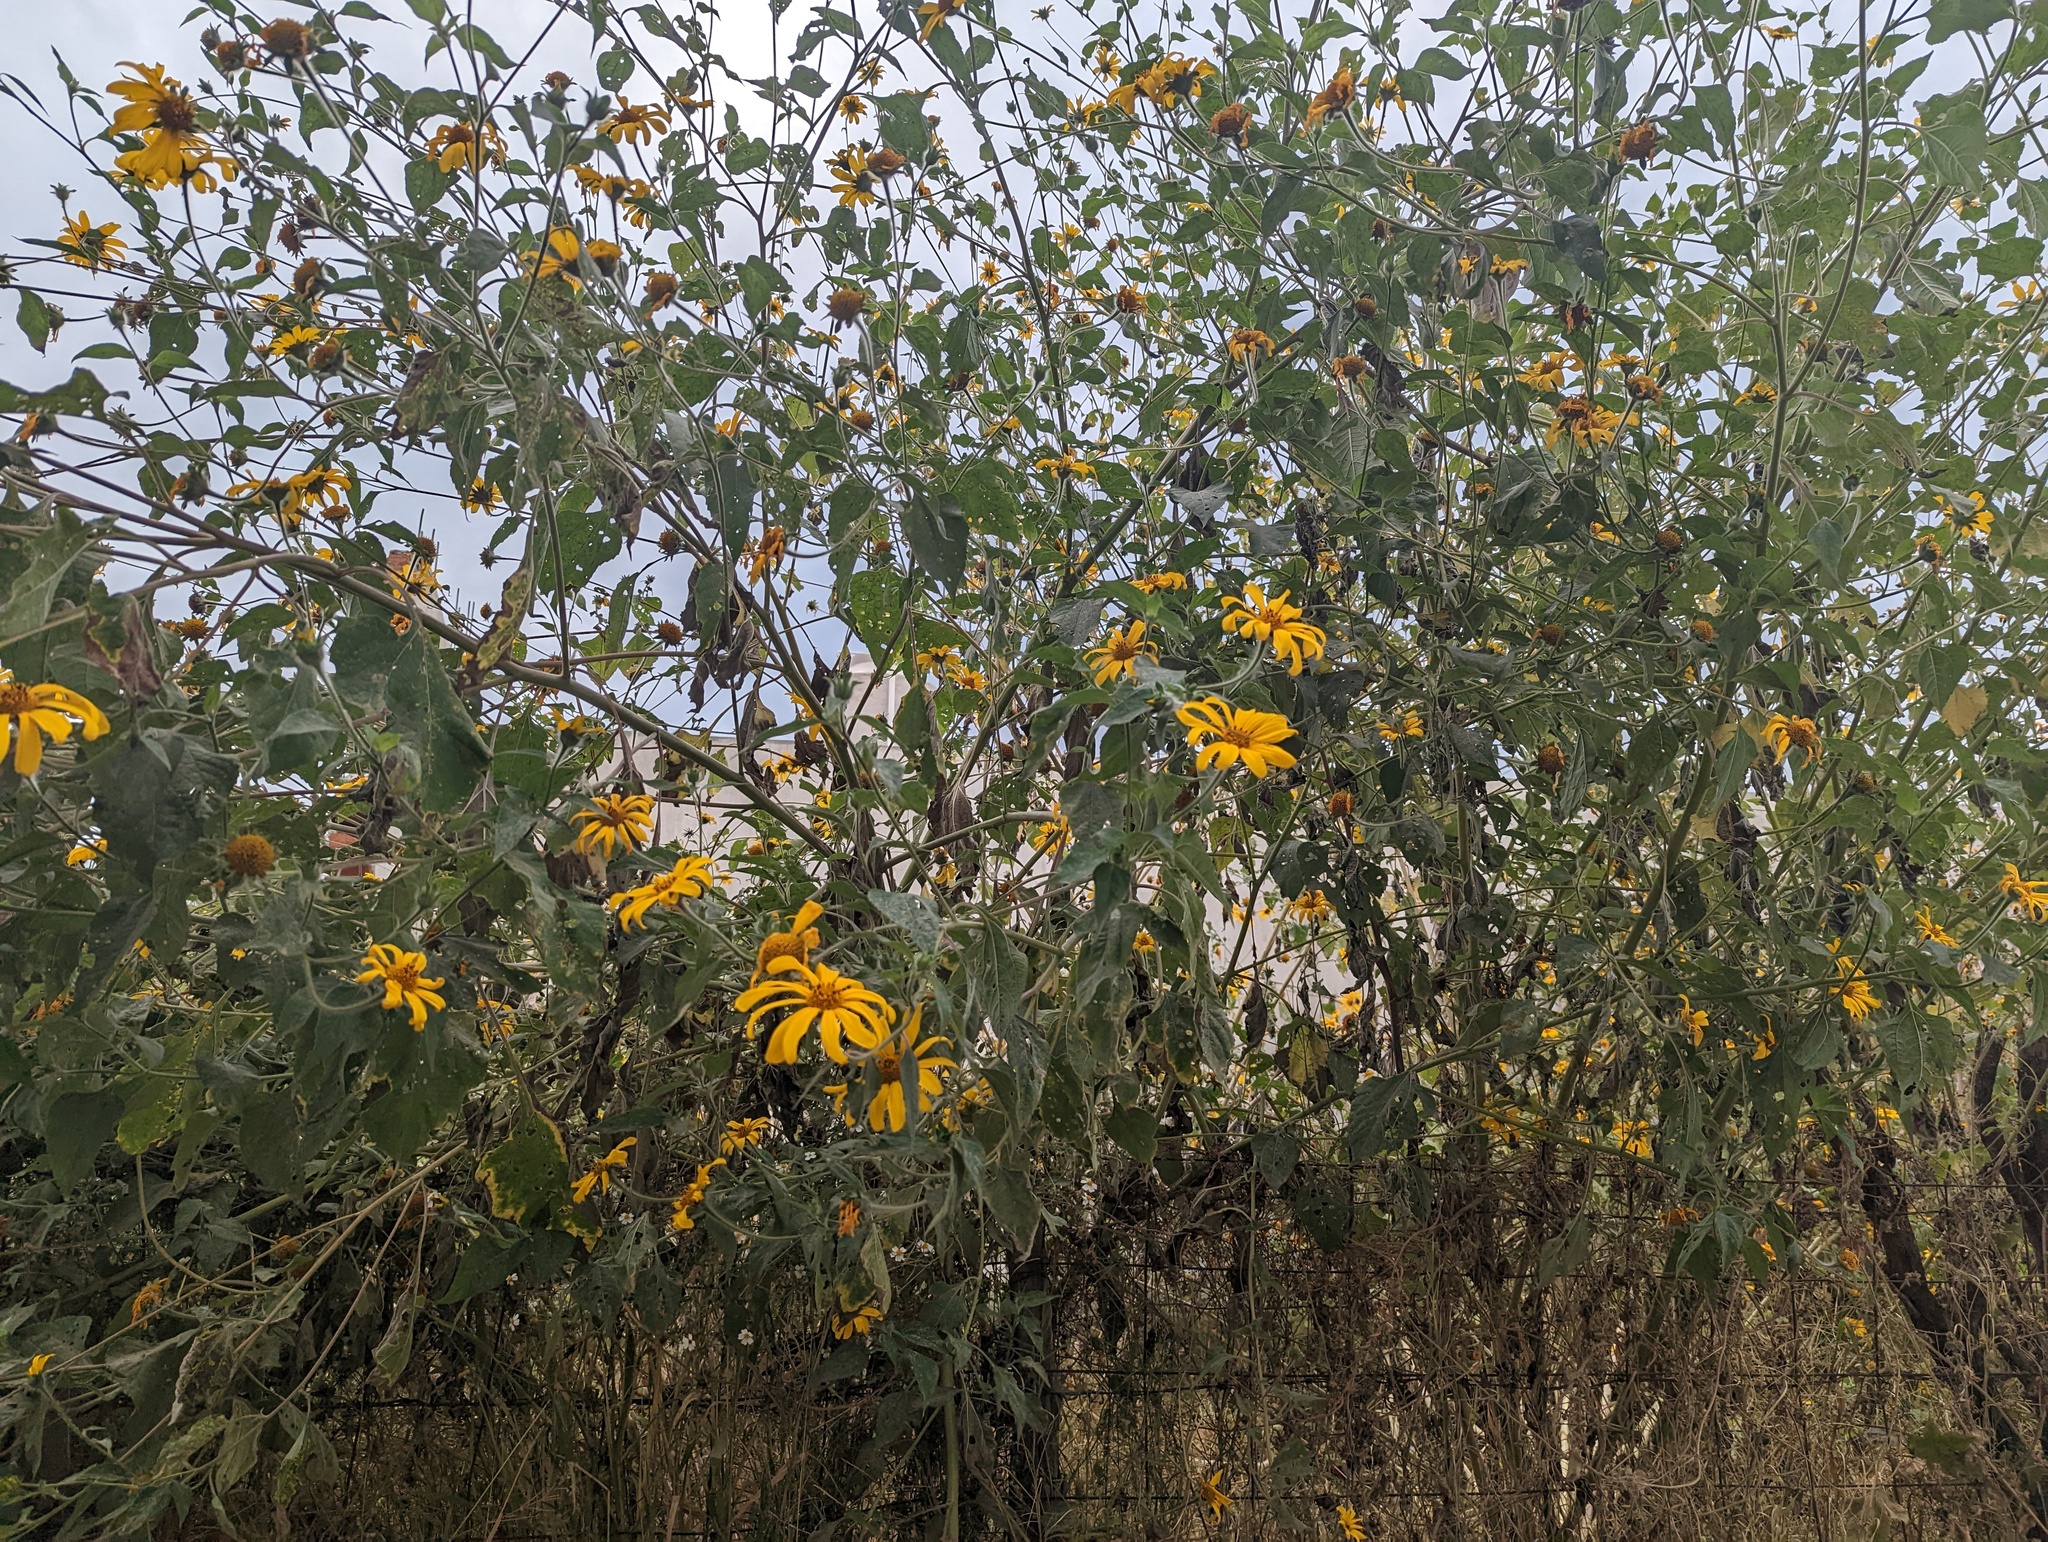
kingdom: Plantae
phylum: Tracheophyta
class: Magnoliopsida
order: Asterales
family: Asteraceae
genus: Tithonia
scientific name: Tithonia tubaeformis
